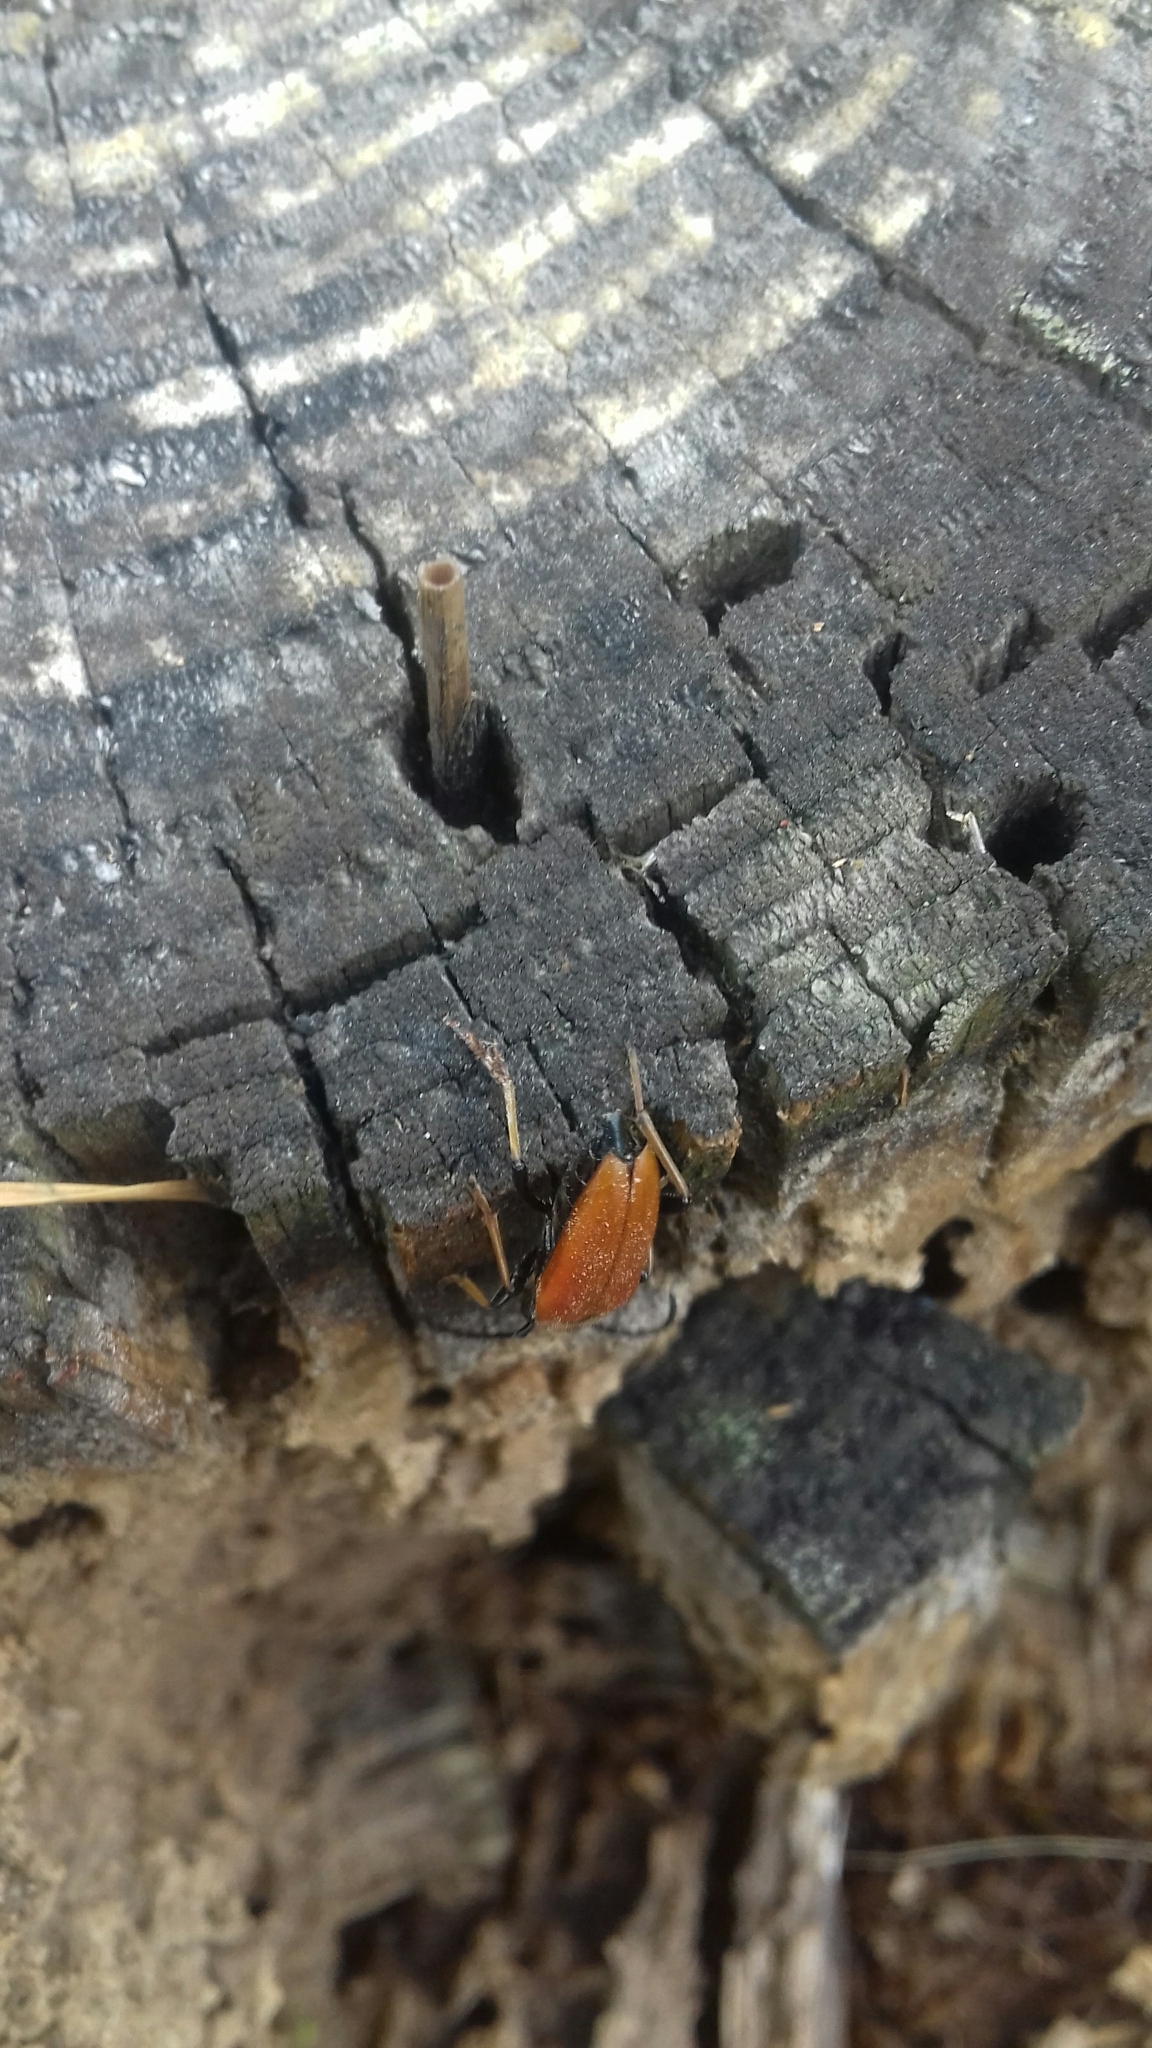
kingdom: Animalia
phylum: Arthropoda
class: Insecta
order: Coleoptera
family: Cerambycidae
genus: Stictoleptura
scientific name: Stictoleptura rubra
